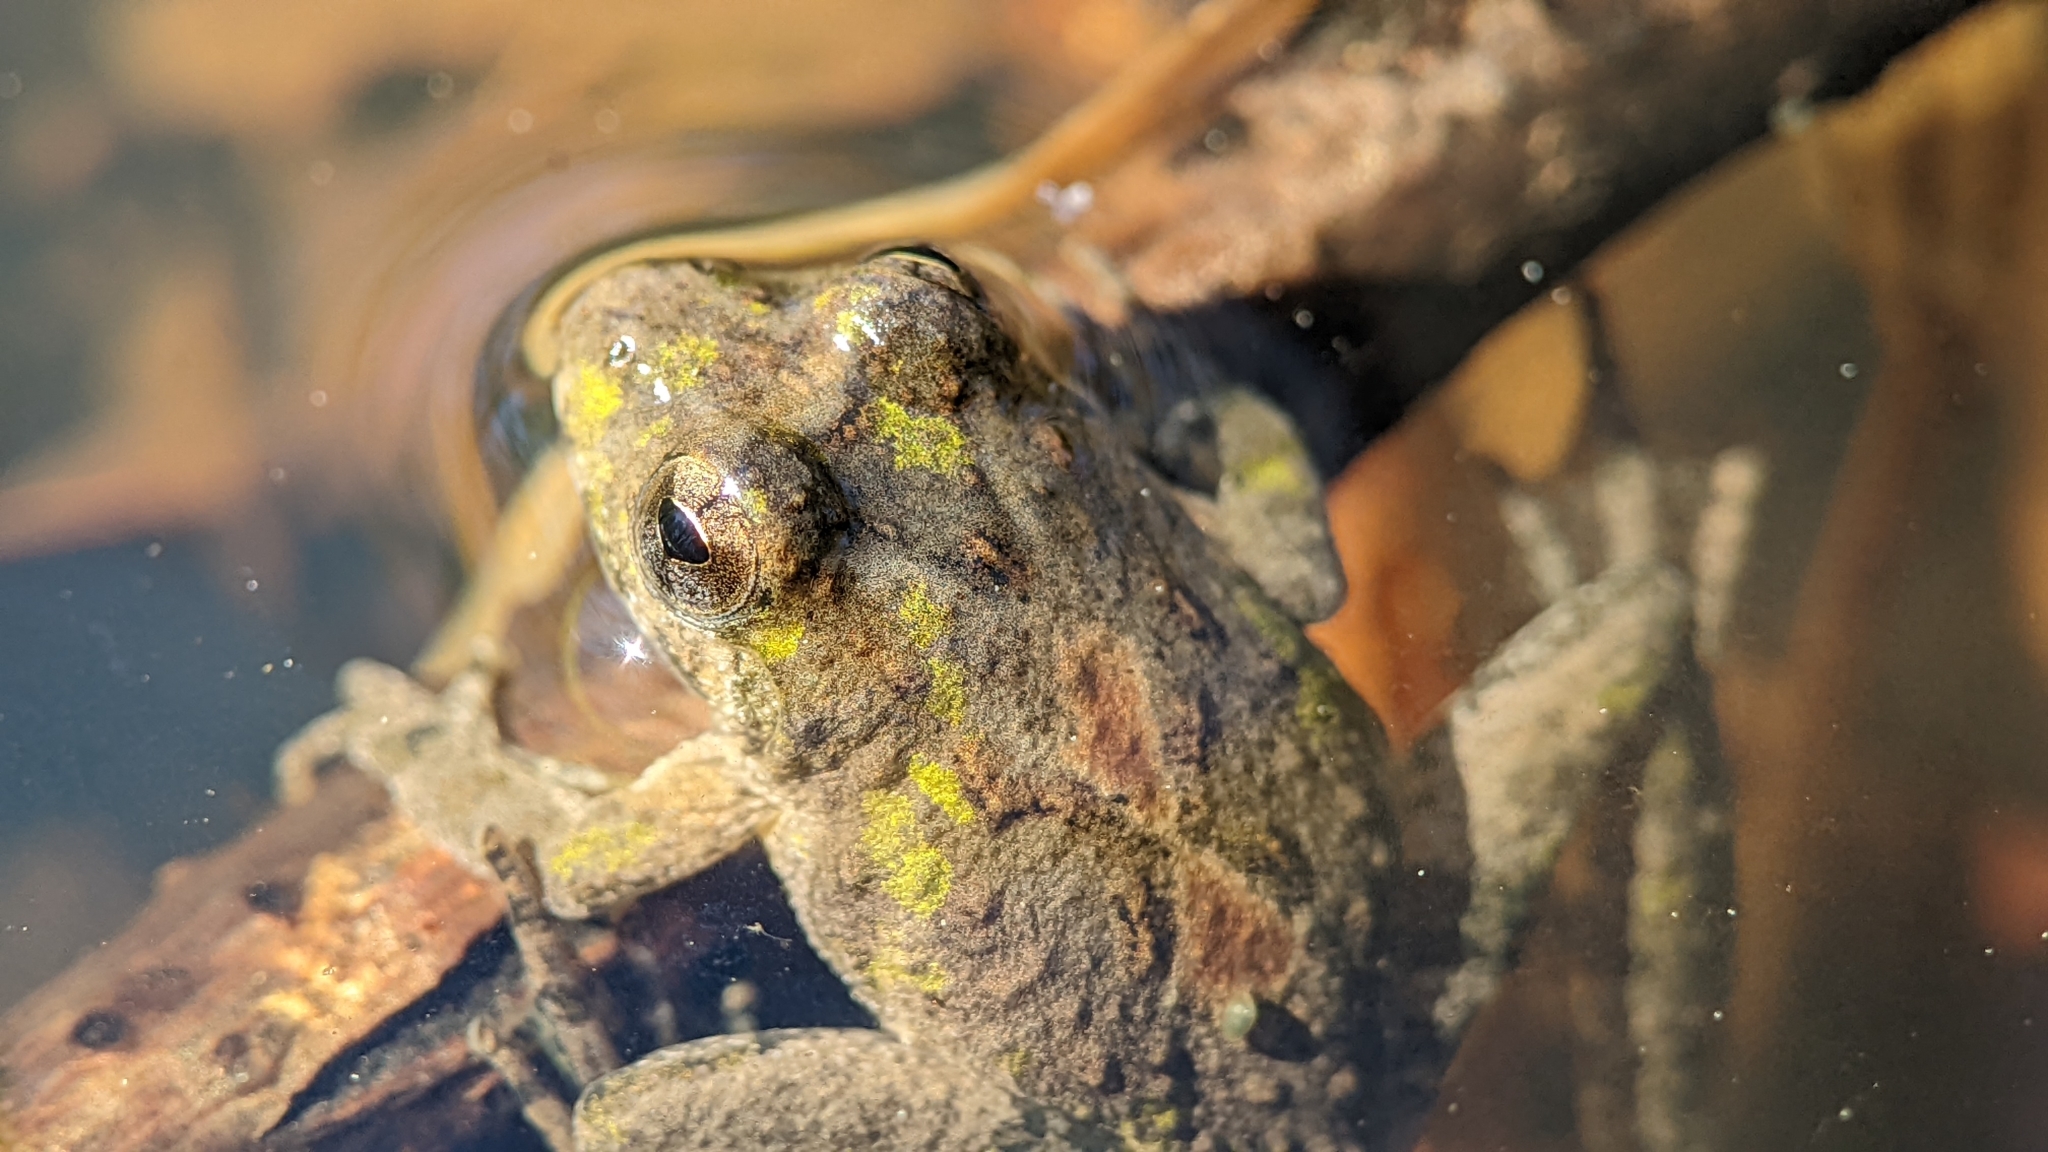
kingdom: Animalia
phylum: Chordata
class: Amphibia
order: Anura
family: Hylidae
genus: Acris
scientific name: Acris blanchardi
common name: Blanchard's cricket frog
